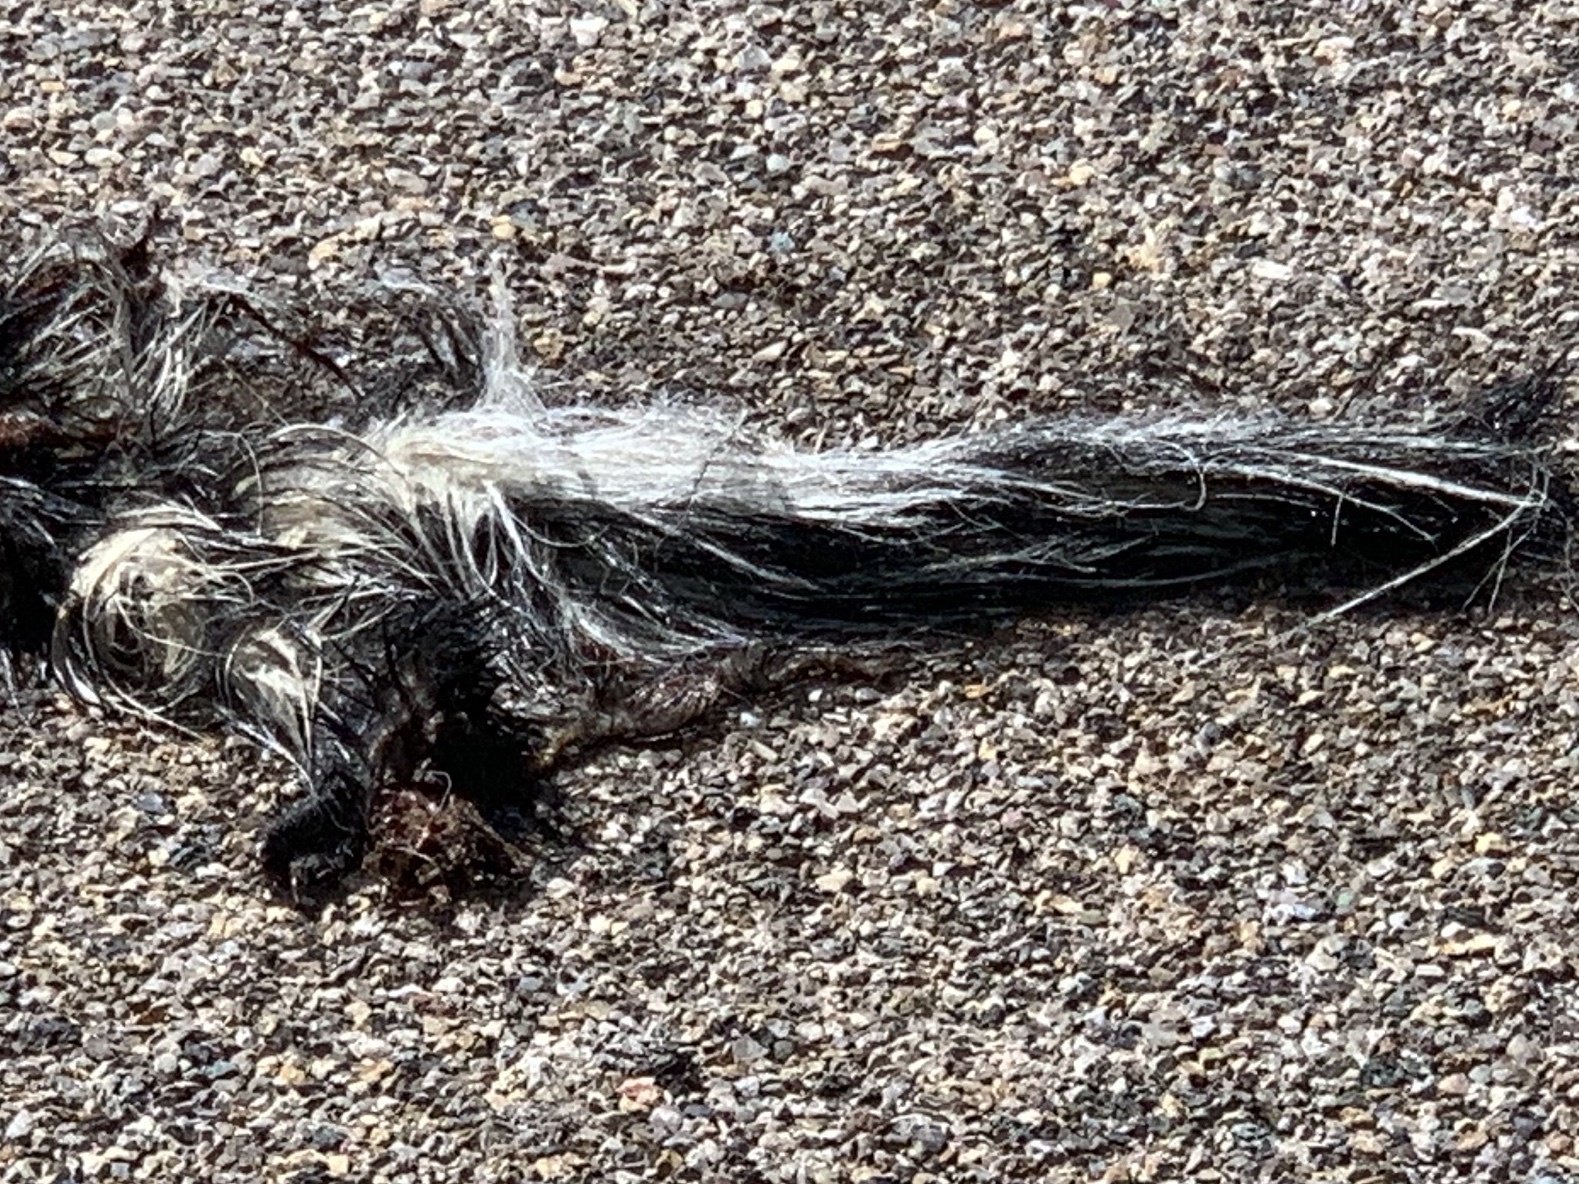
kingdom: Animalia
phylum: Chordata
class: Mammalia
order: Carnivora
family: Mephitidae
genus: Mephitis
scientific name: Mephitis mephitis
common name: Striped skunk
